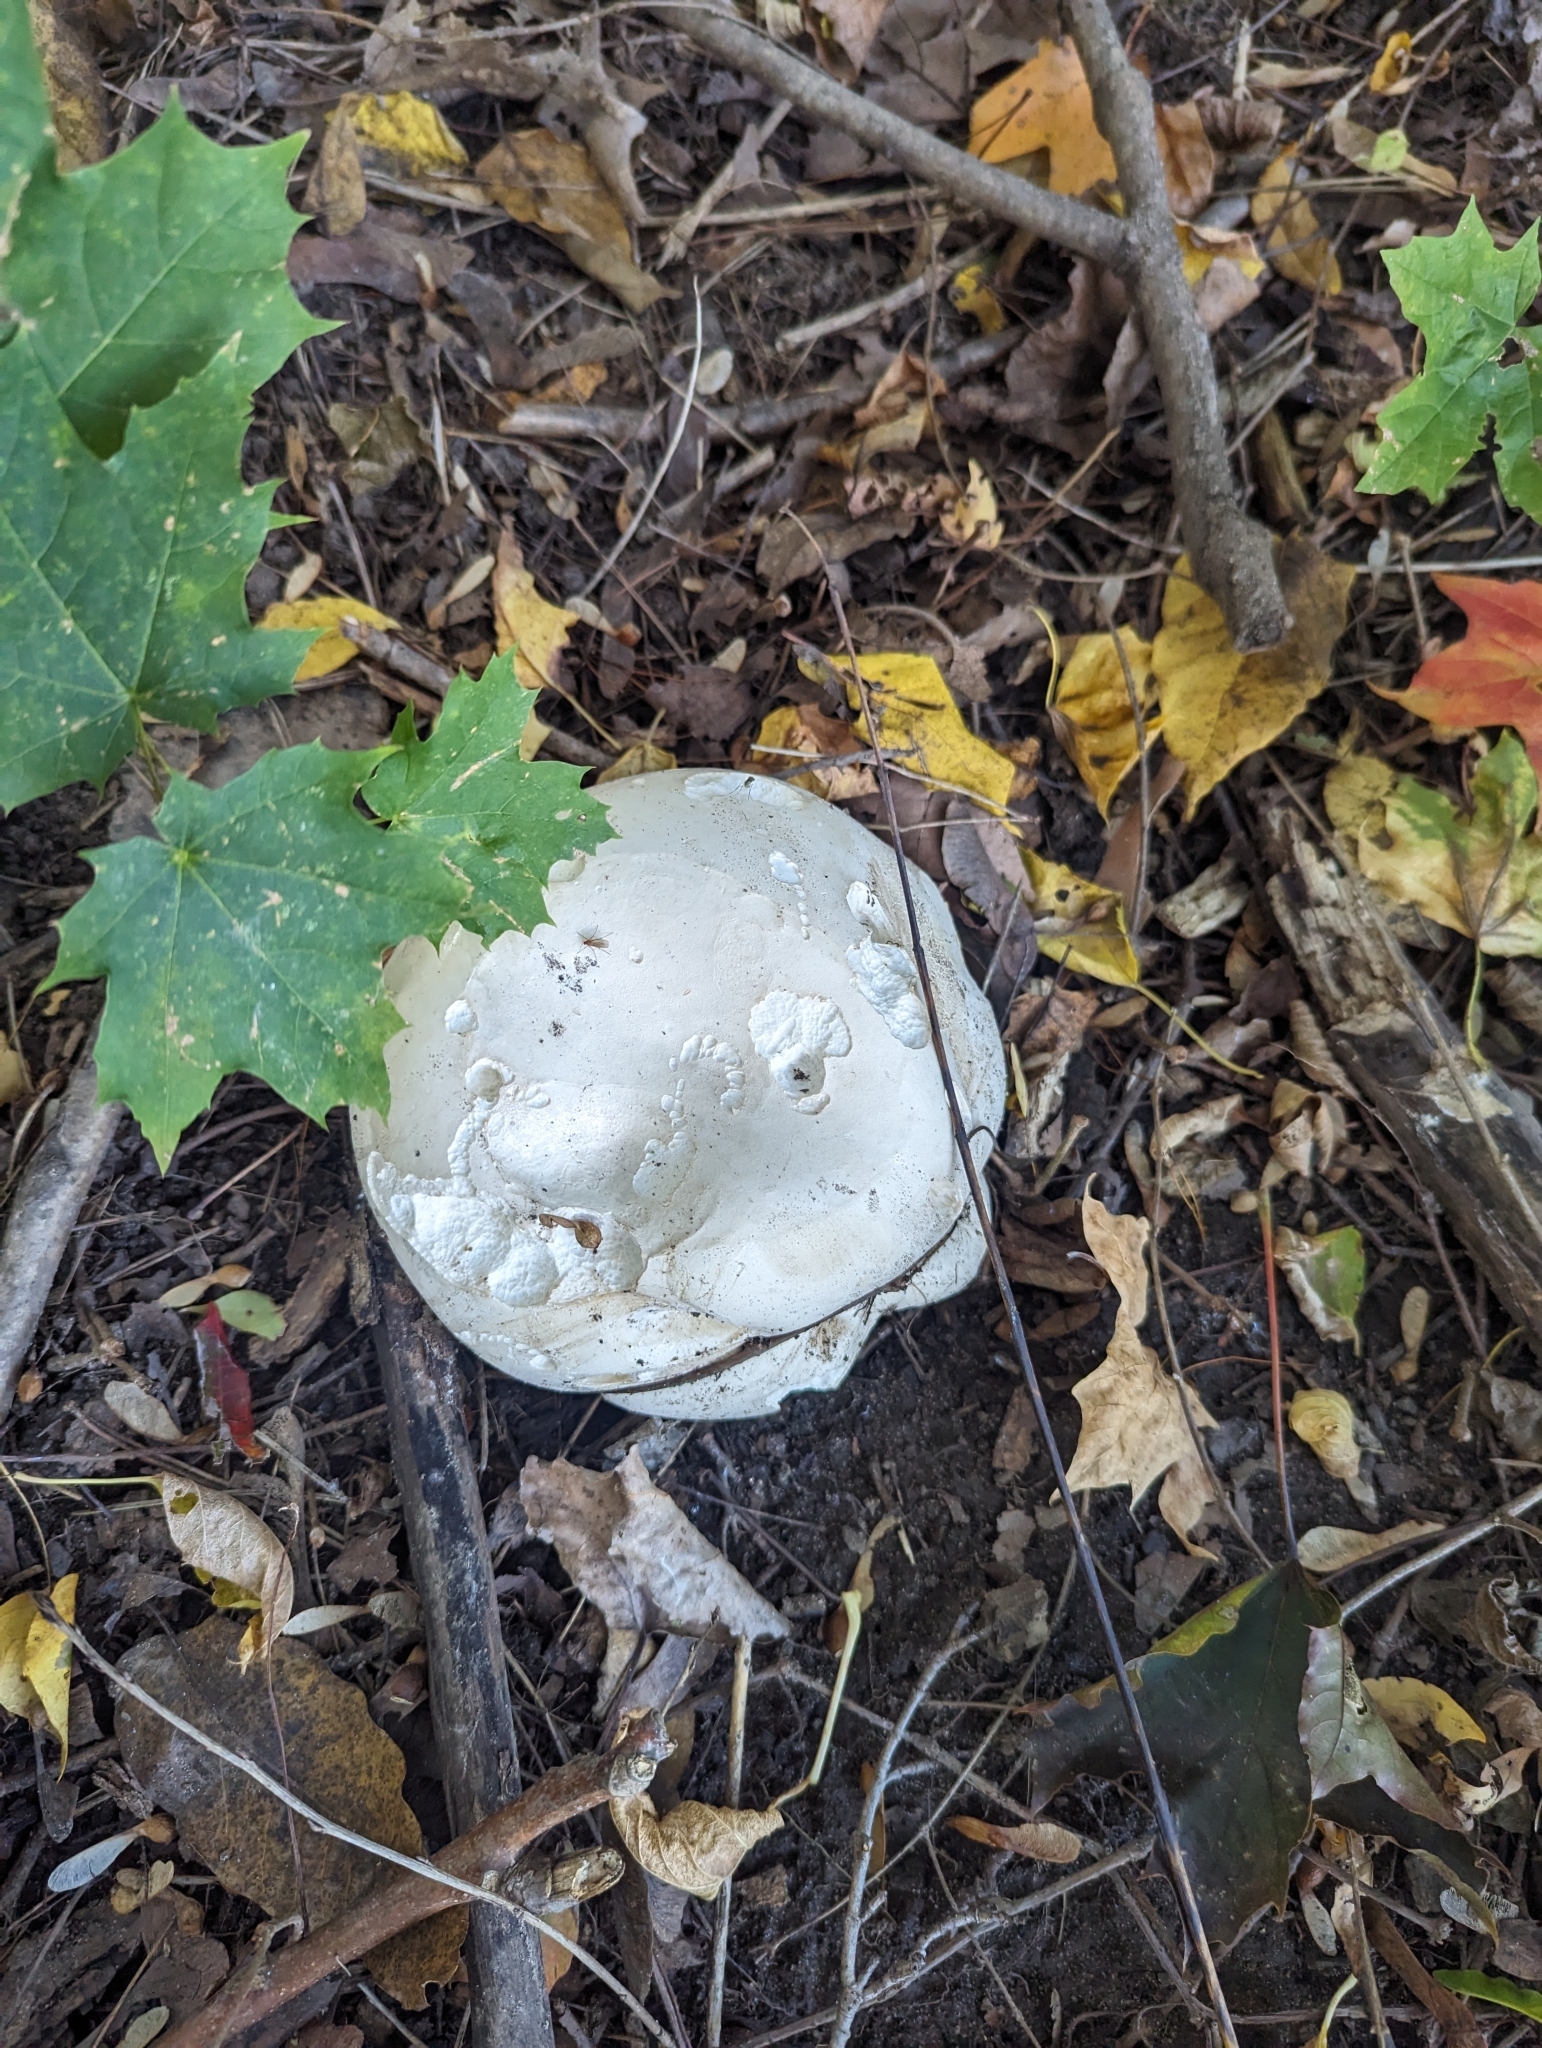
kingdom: Fungi
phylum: Basidiomycota
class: Agaricomycetes
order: Agaricales
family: Lycoperdaceae
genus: Calvatia
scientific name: Calvatia gigantea
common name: Giant puffball
